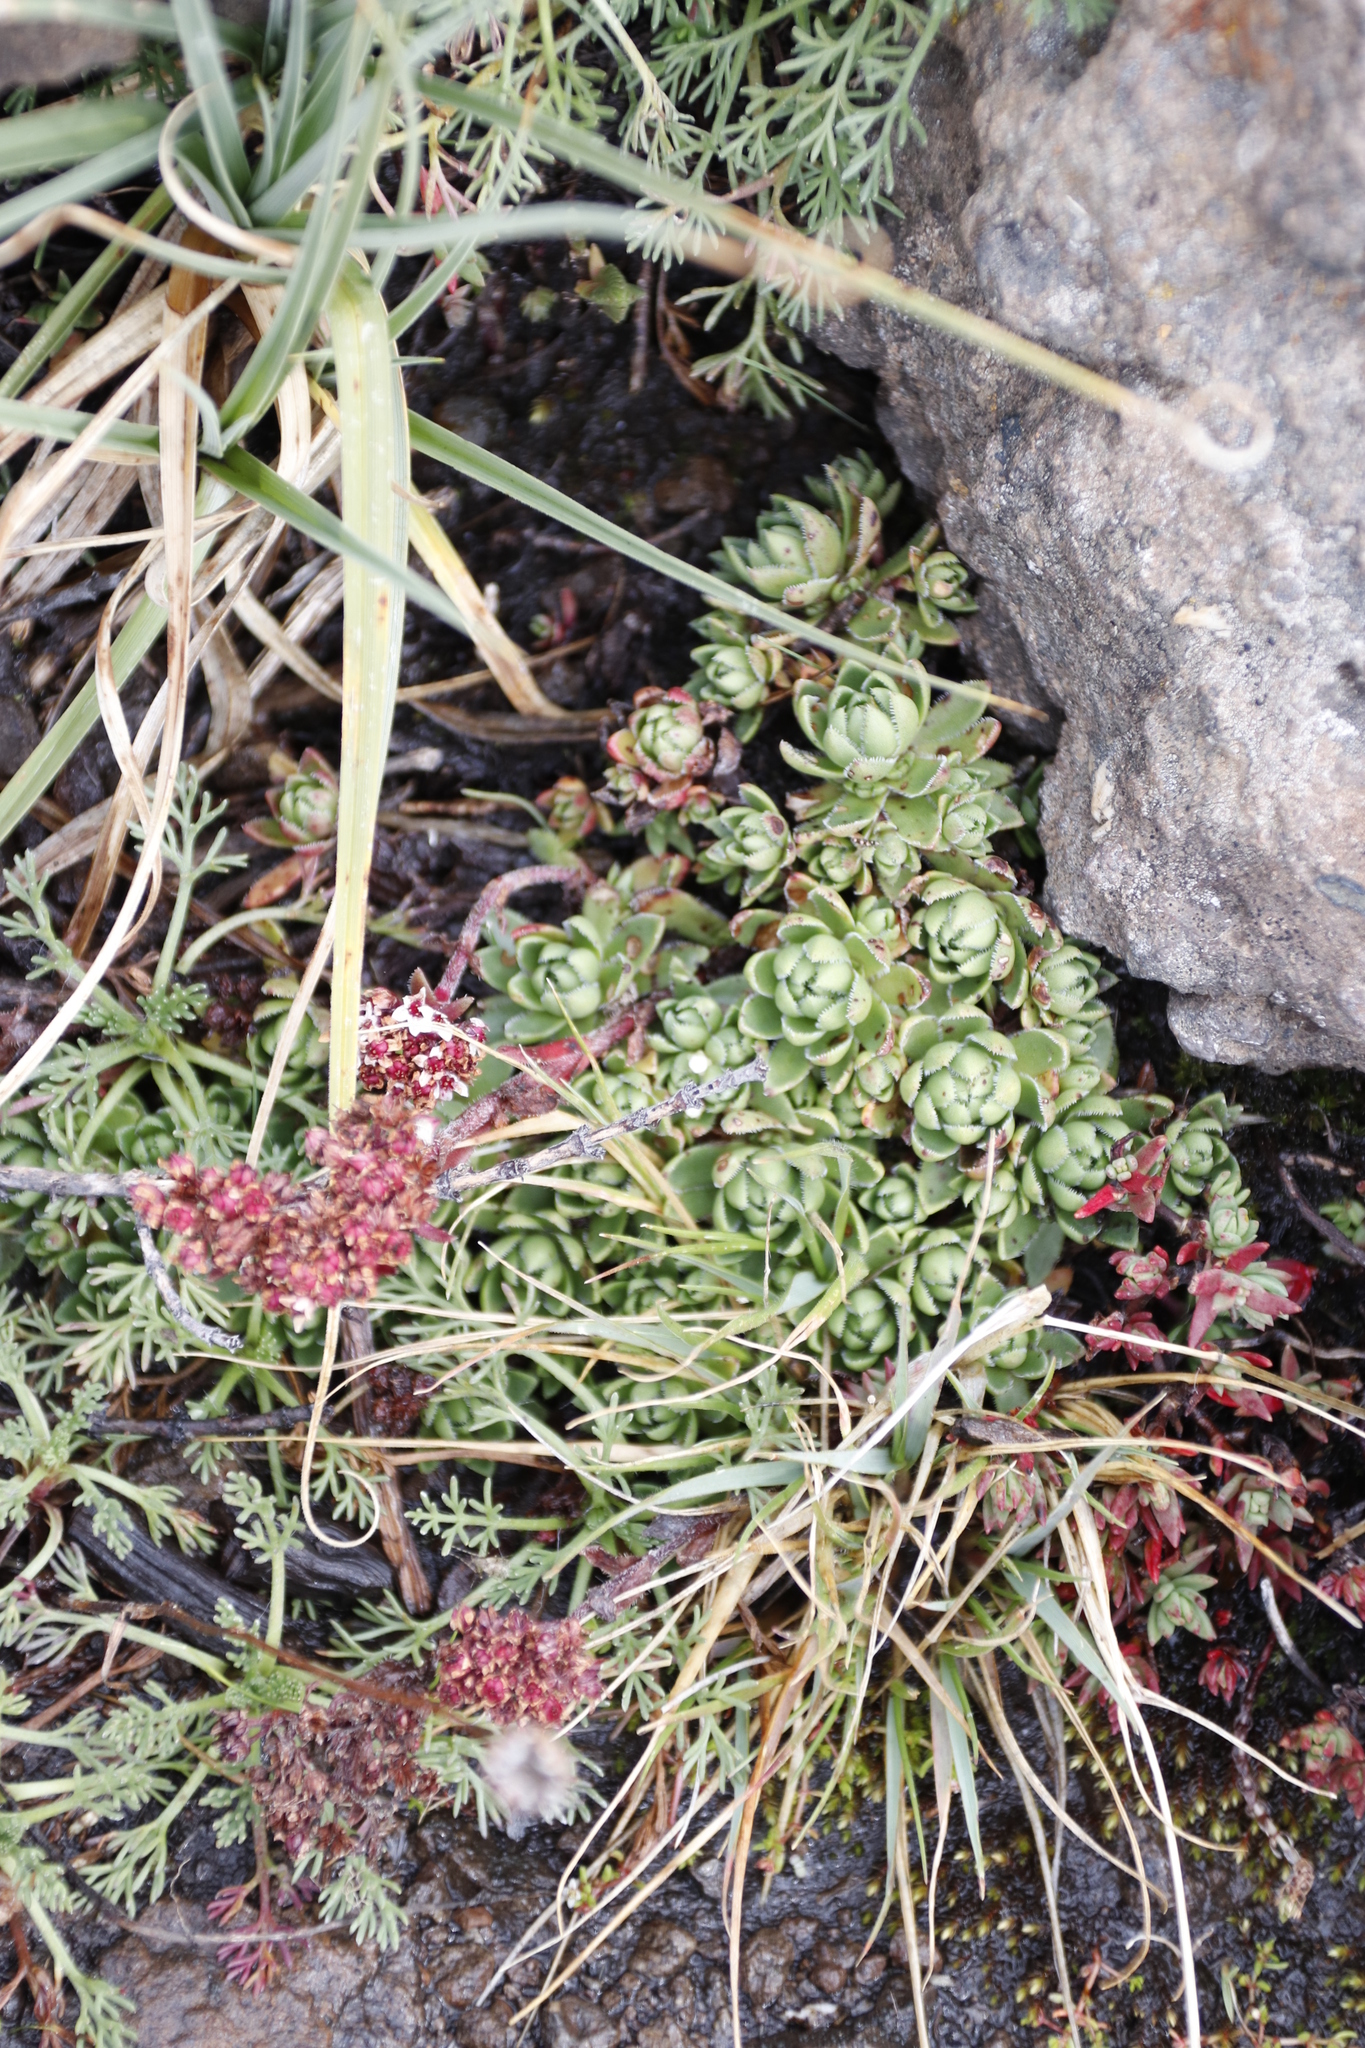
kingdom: Plantae
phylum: Tracheophyta
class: Magnoliopsida
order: Saxifragales
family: Crassulaceae
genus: Crassula
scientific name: Crassula setulosa
